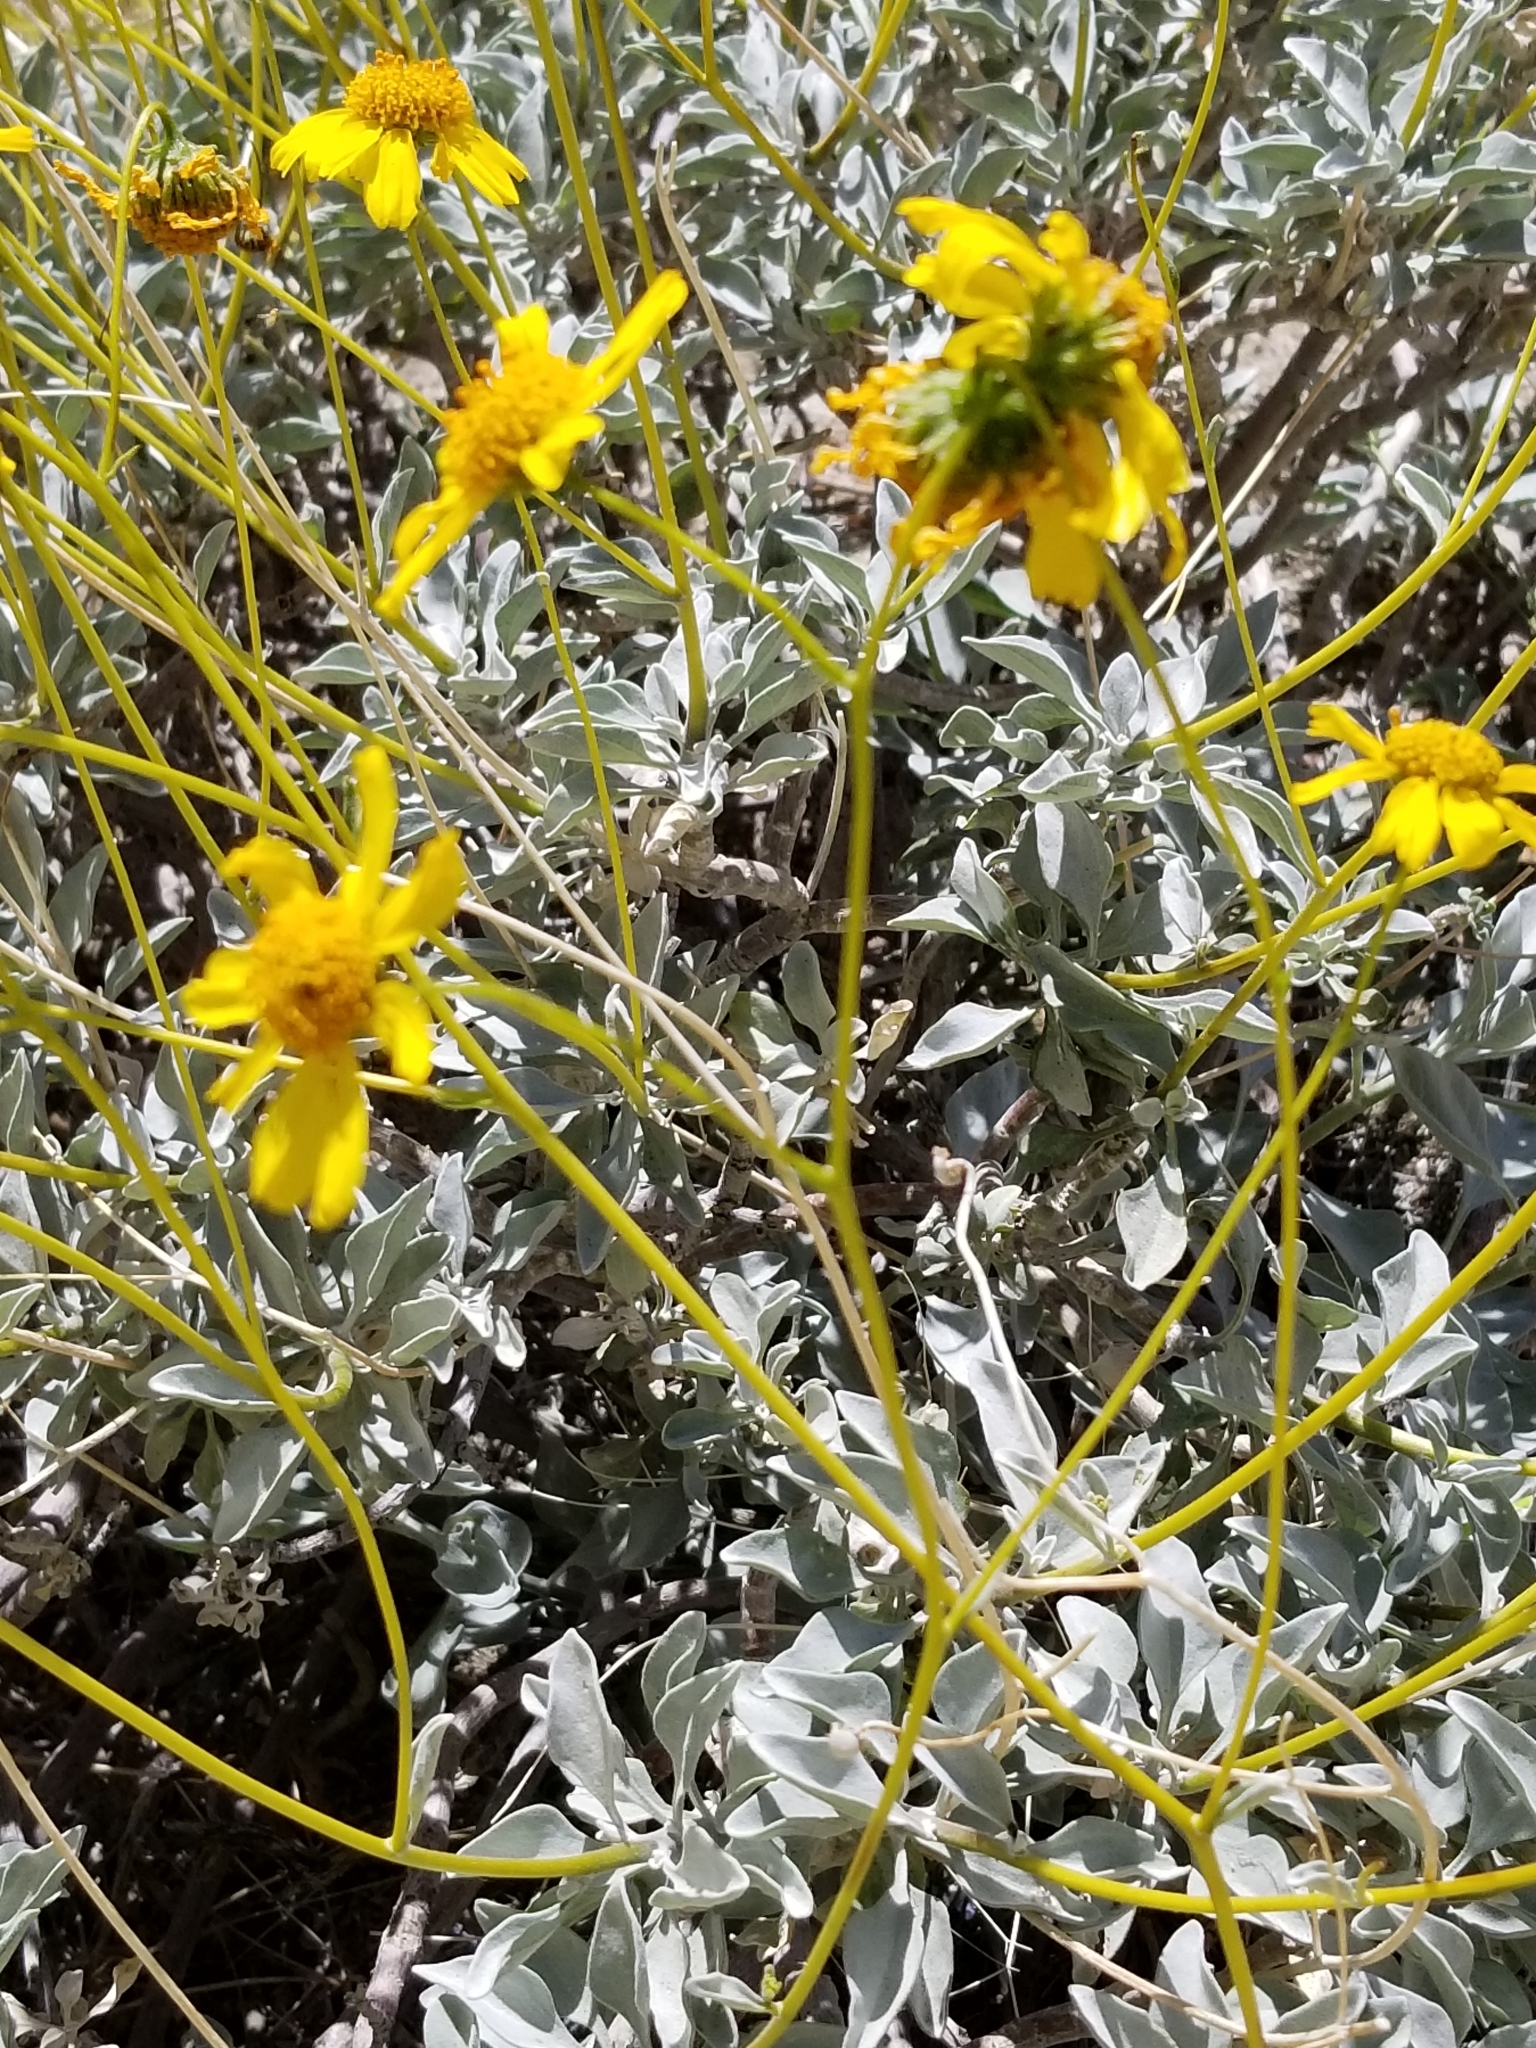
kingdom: Plantae
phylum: Tracheophyta
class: Magnoliopsida
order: Asterales
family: Asteraceae
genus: Encelia
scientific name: Encelia farinosa
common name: Brittlebush
